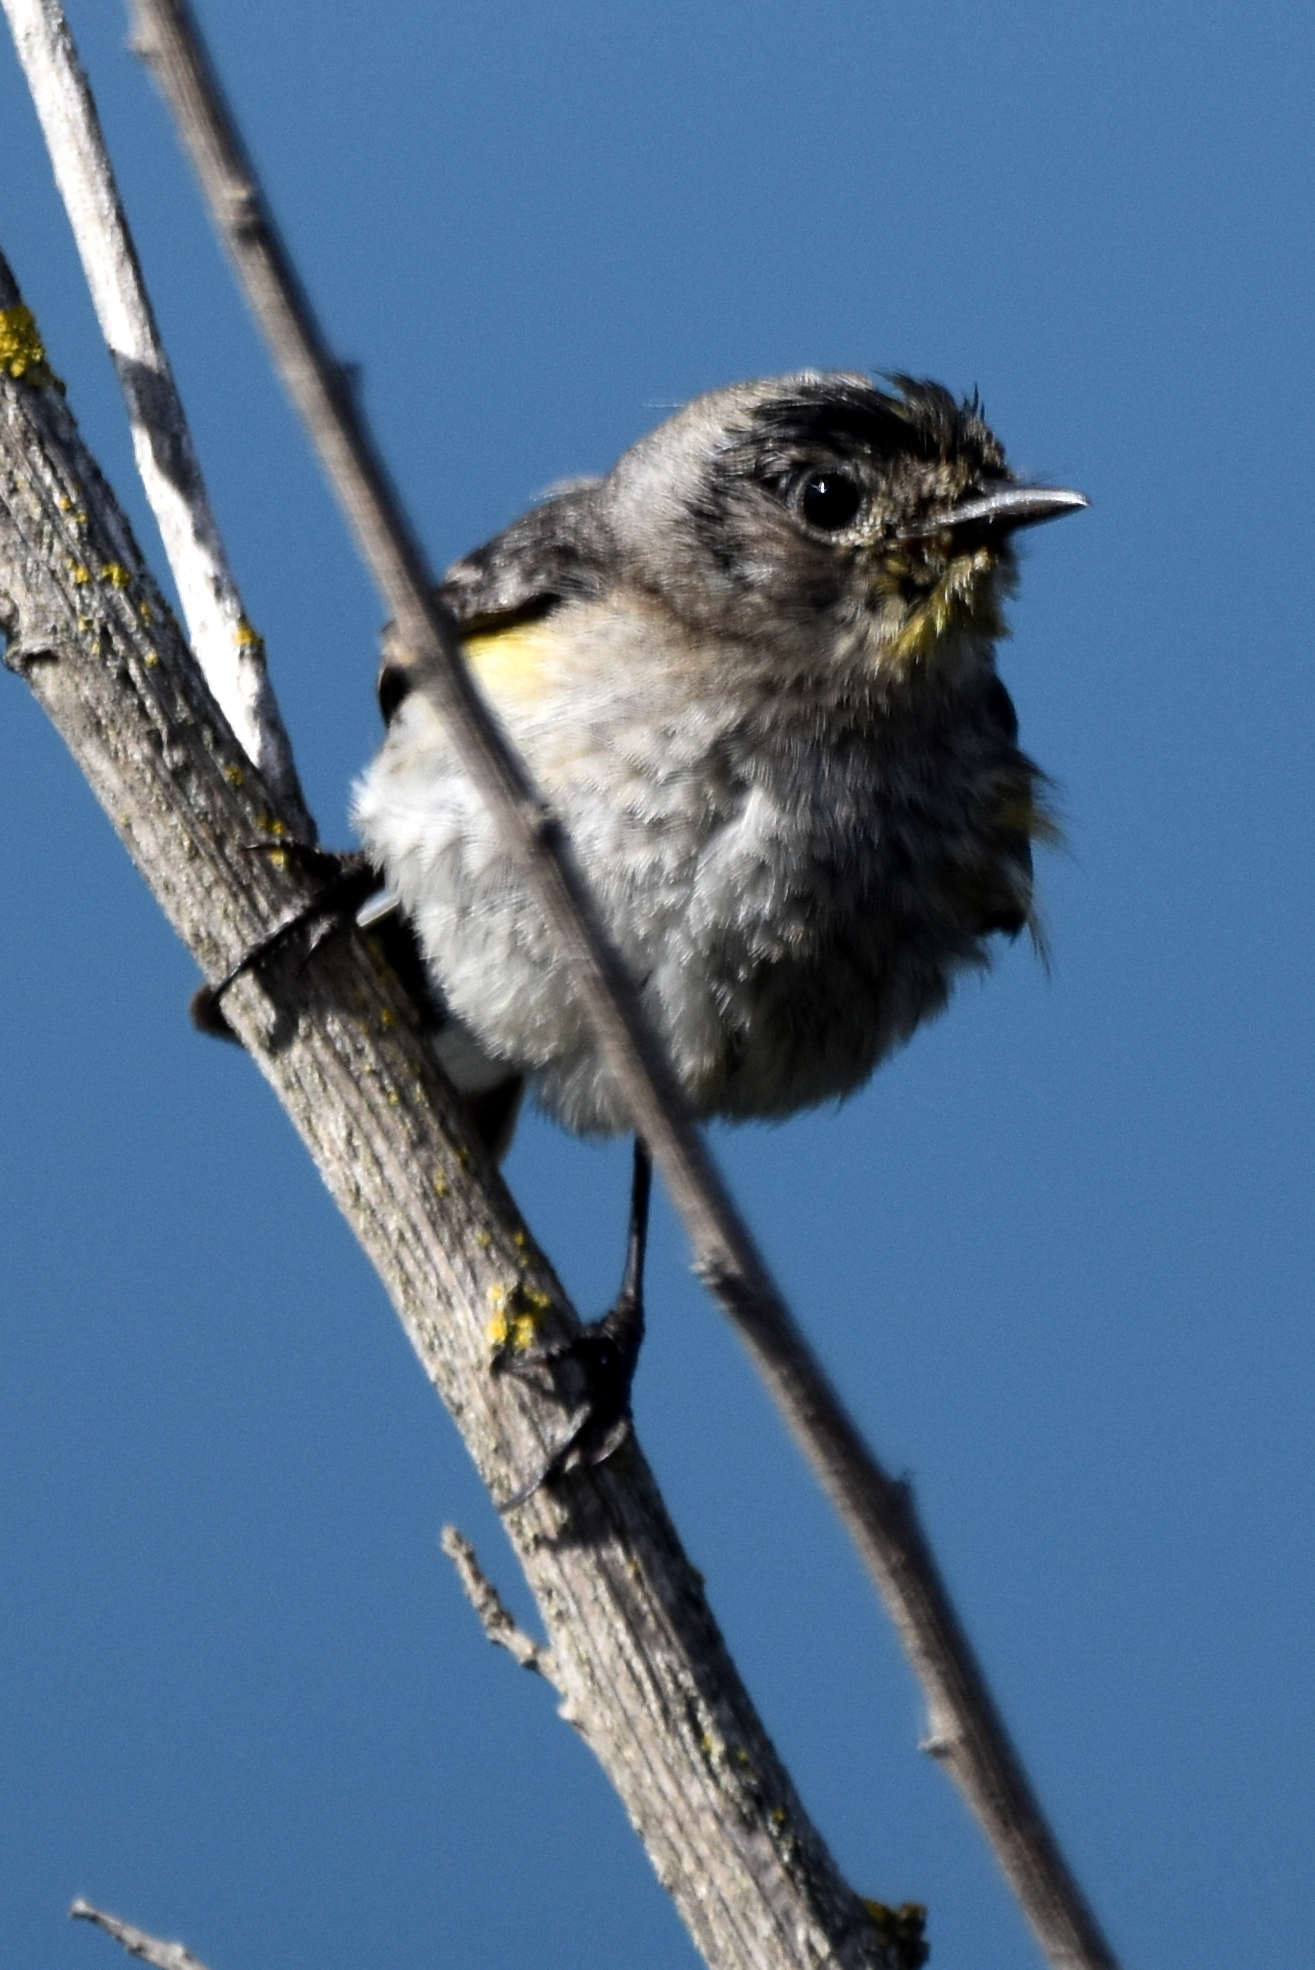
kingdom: Animalia
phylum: Chordata
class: Aves
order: Passeriformes
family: Parulidae
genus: Setophaga
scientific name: Setophaga coronata
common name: Myrtle warbler
